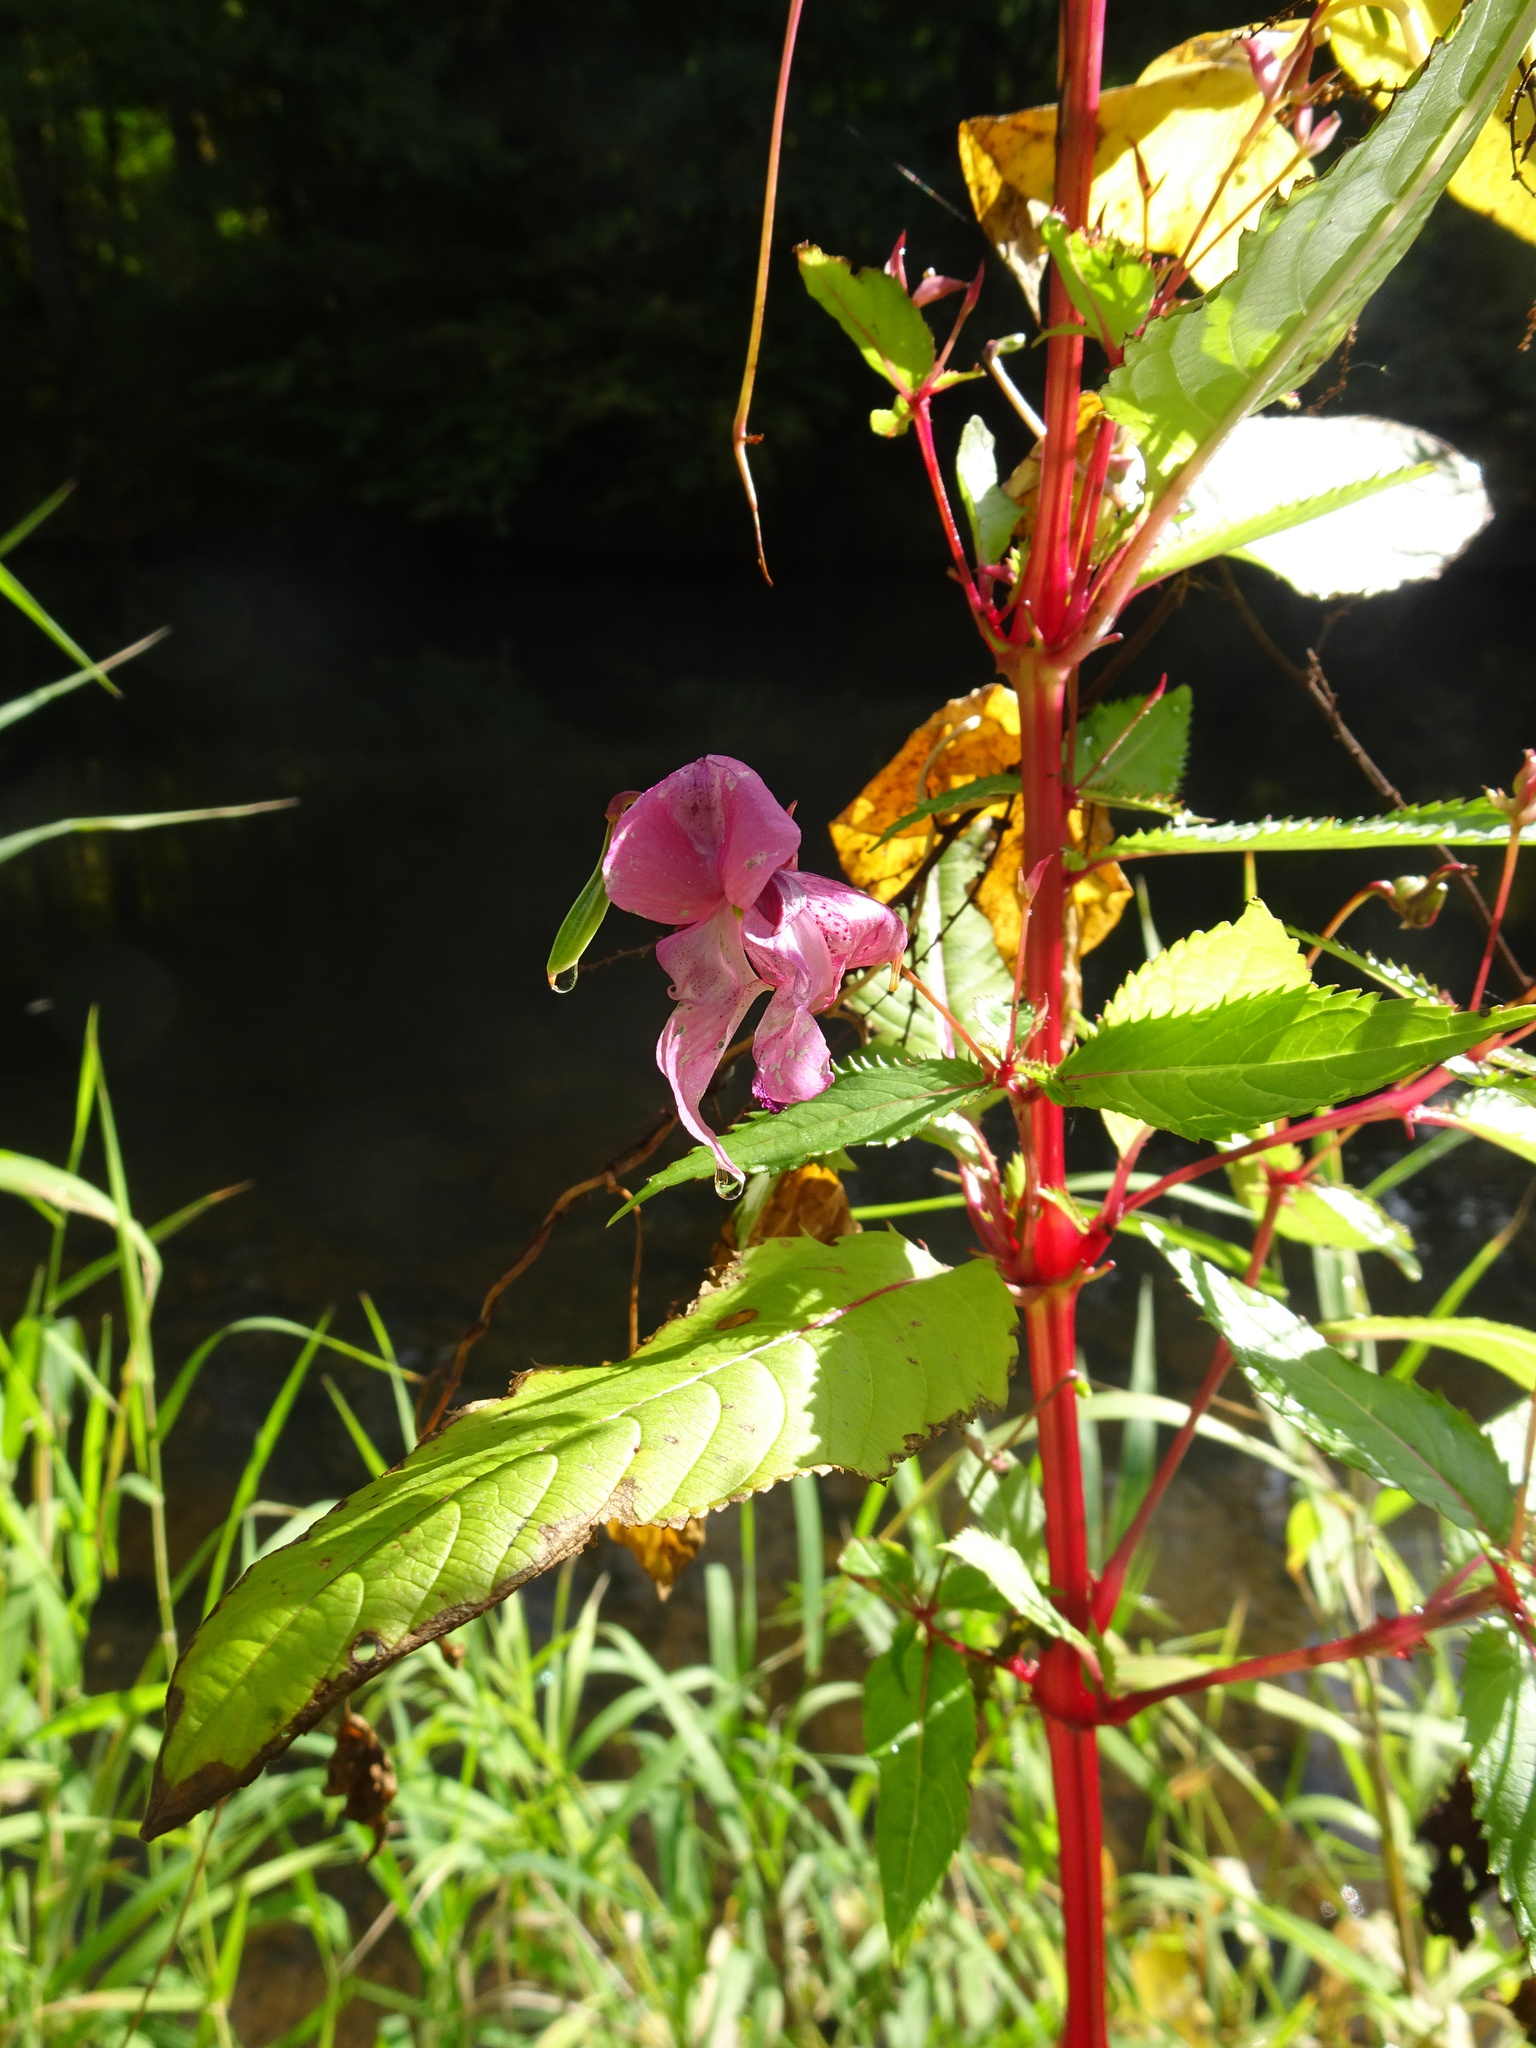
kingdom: Plantae
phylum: Tracheophyta
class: Magnoliopsida
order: Ericales
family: Balsaminaceae
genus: Impatiens
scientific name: Impatiens glandulifera
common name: Himalayan balsam
